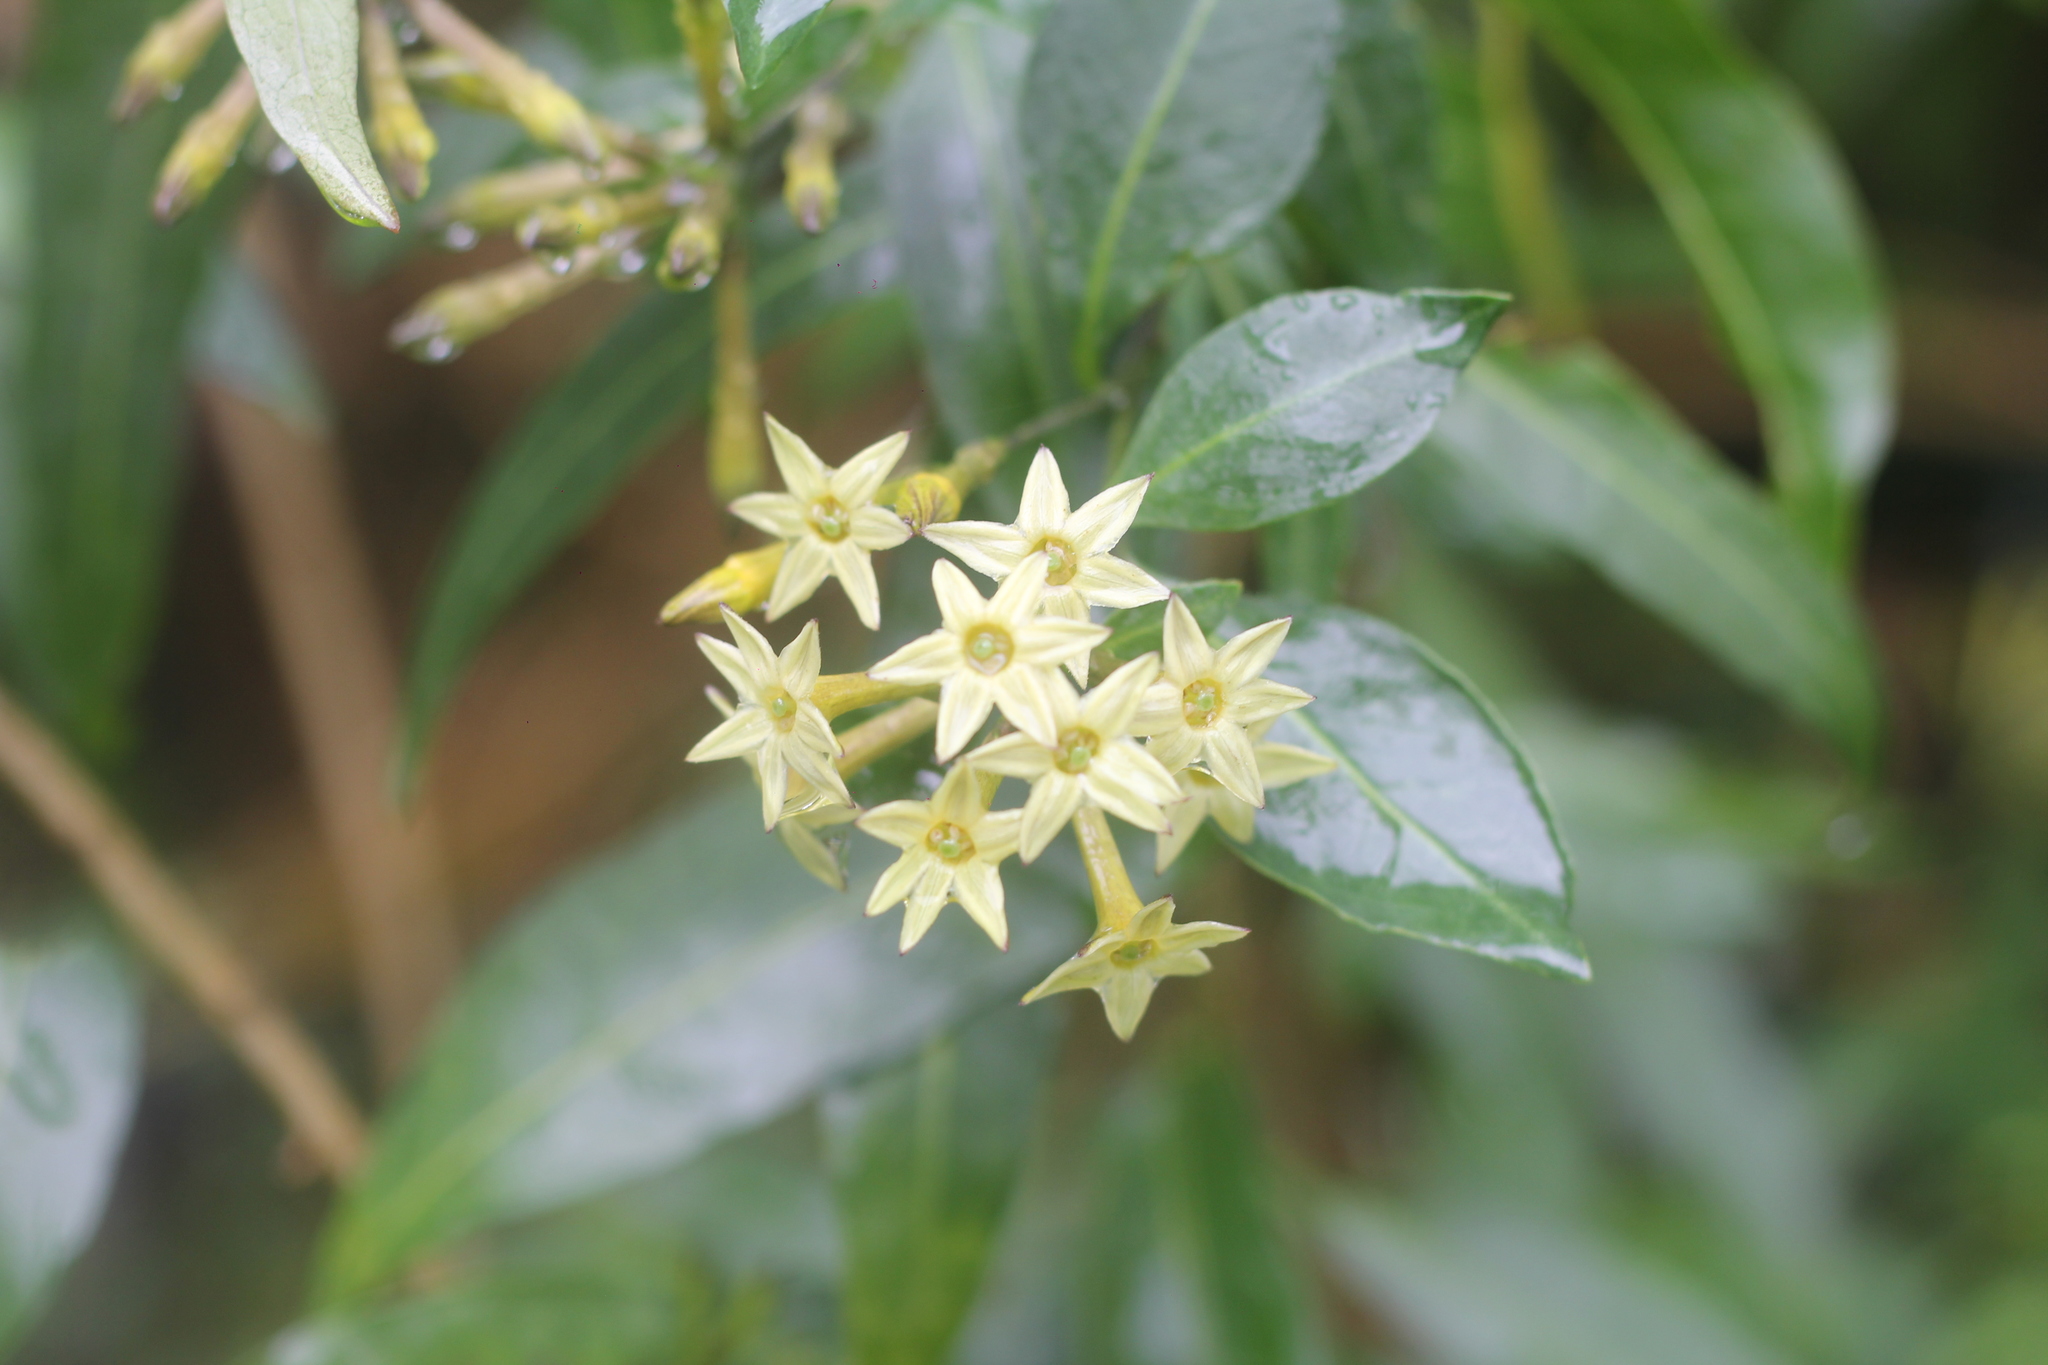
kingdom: Plantae
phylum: Tracheophyta
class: Magnoliopsida
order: Solanales
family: Solanaceae
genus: Cestrum
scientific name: Cestrum parqui
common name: Chilean cestrum
